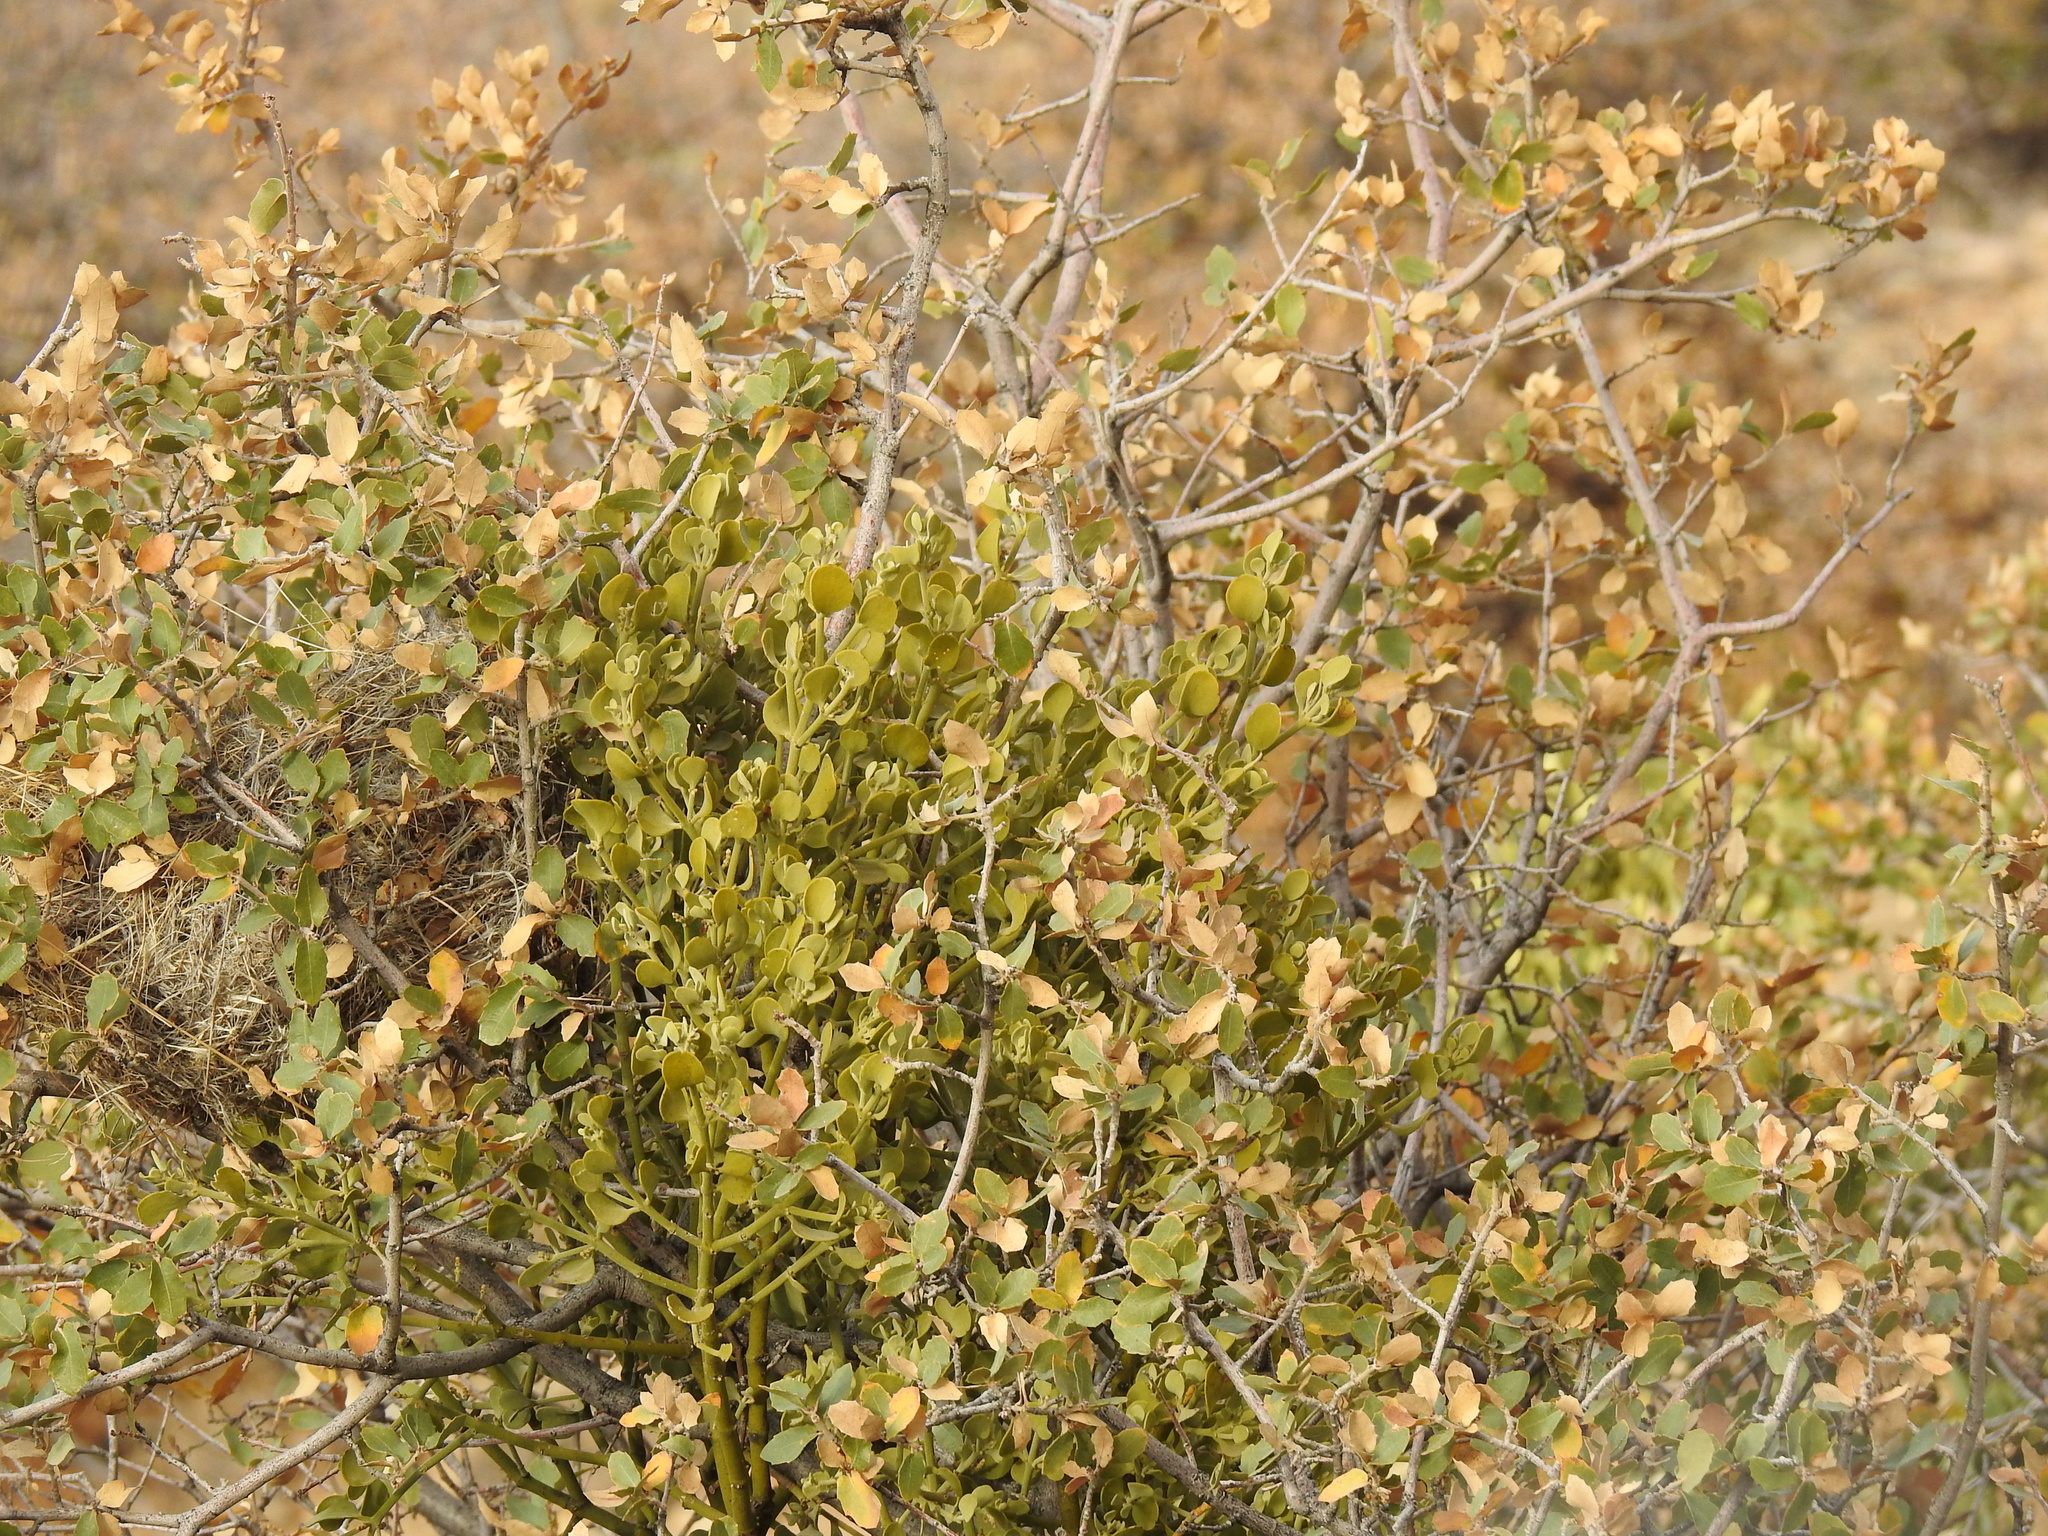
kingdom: Plantae
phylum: Tracheophyta
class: Magnoliopsida
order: Santalales
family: Viscaceae
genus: Phoradendron
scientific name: Phoradendron coryae
